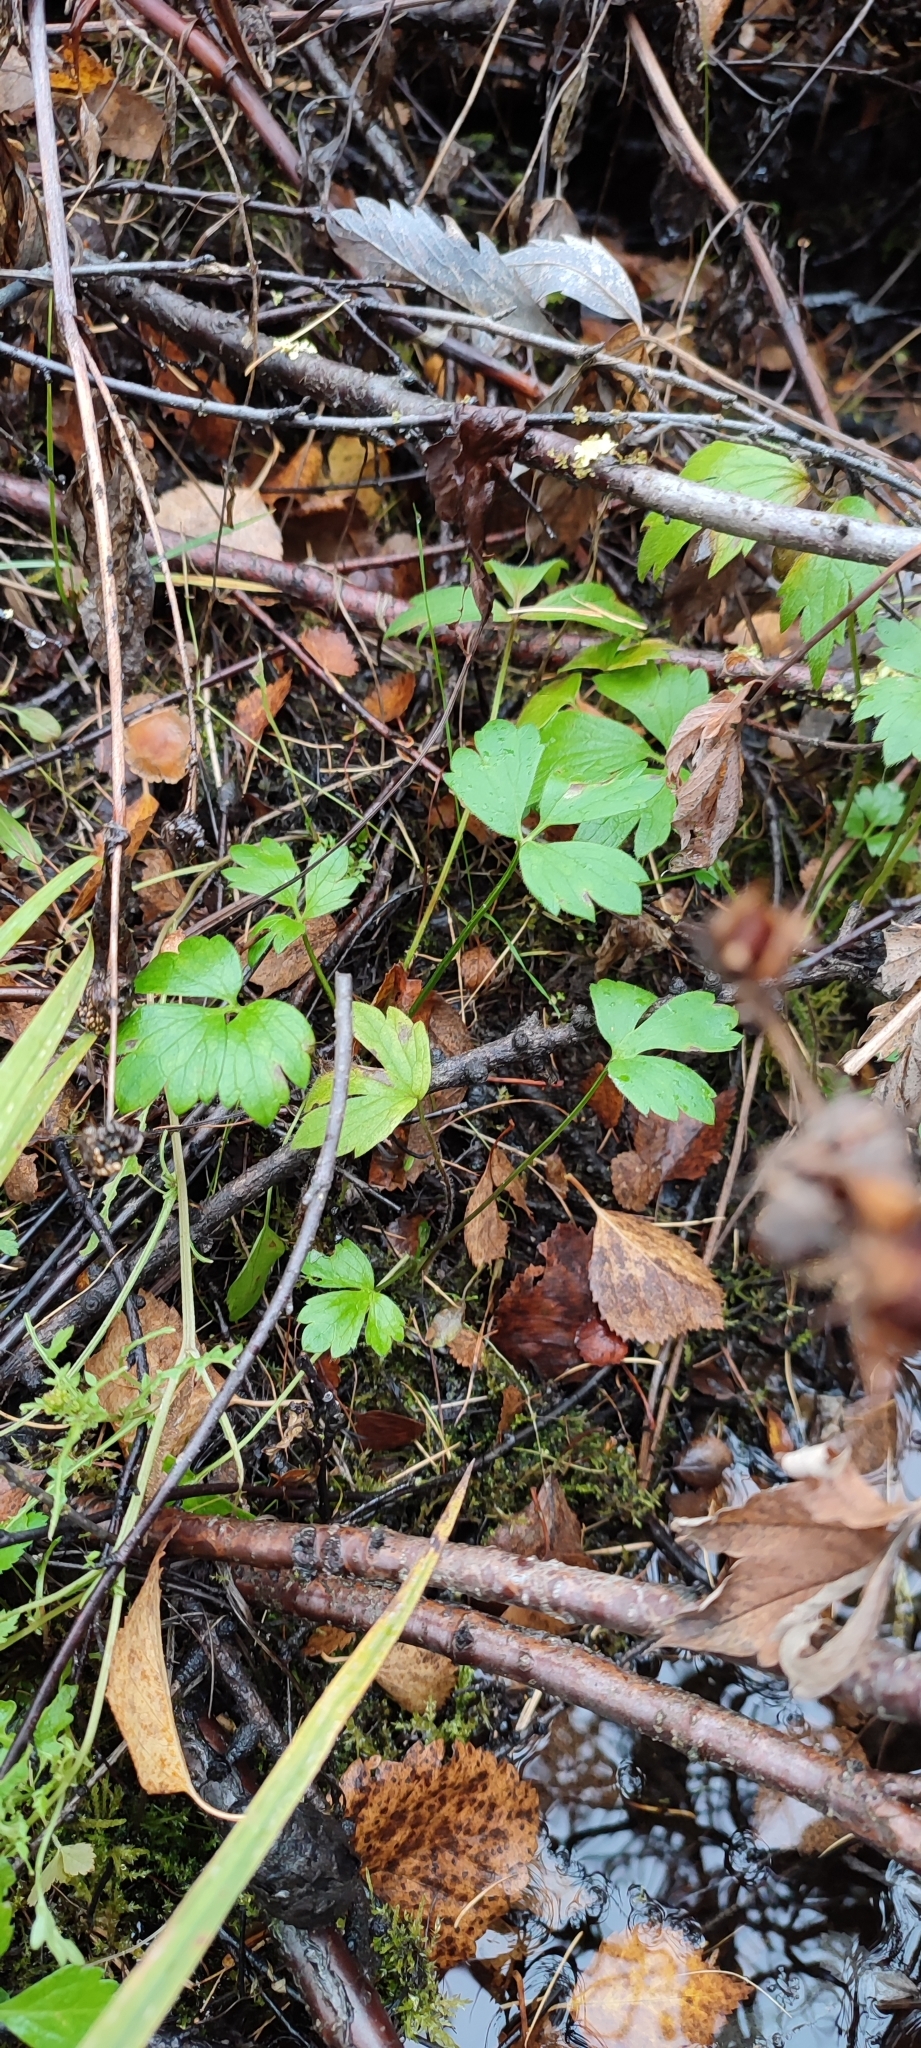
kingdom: Plantae
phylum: Tracheophyta
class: Magnoliopsida
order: Ranunculales
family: Ranunculaceae
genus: Ranunculus
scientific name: Ranunculus repens
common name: Creeping buttercup
